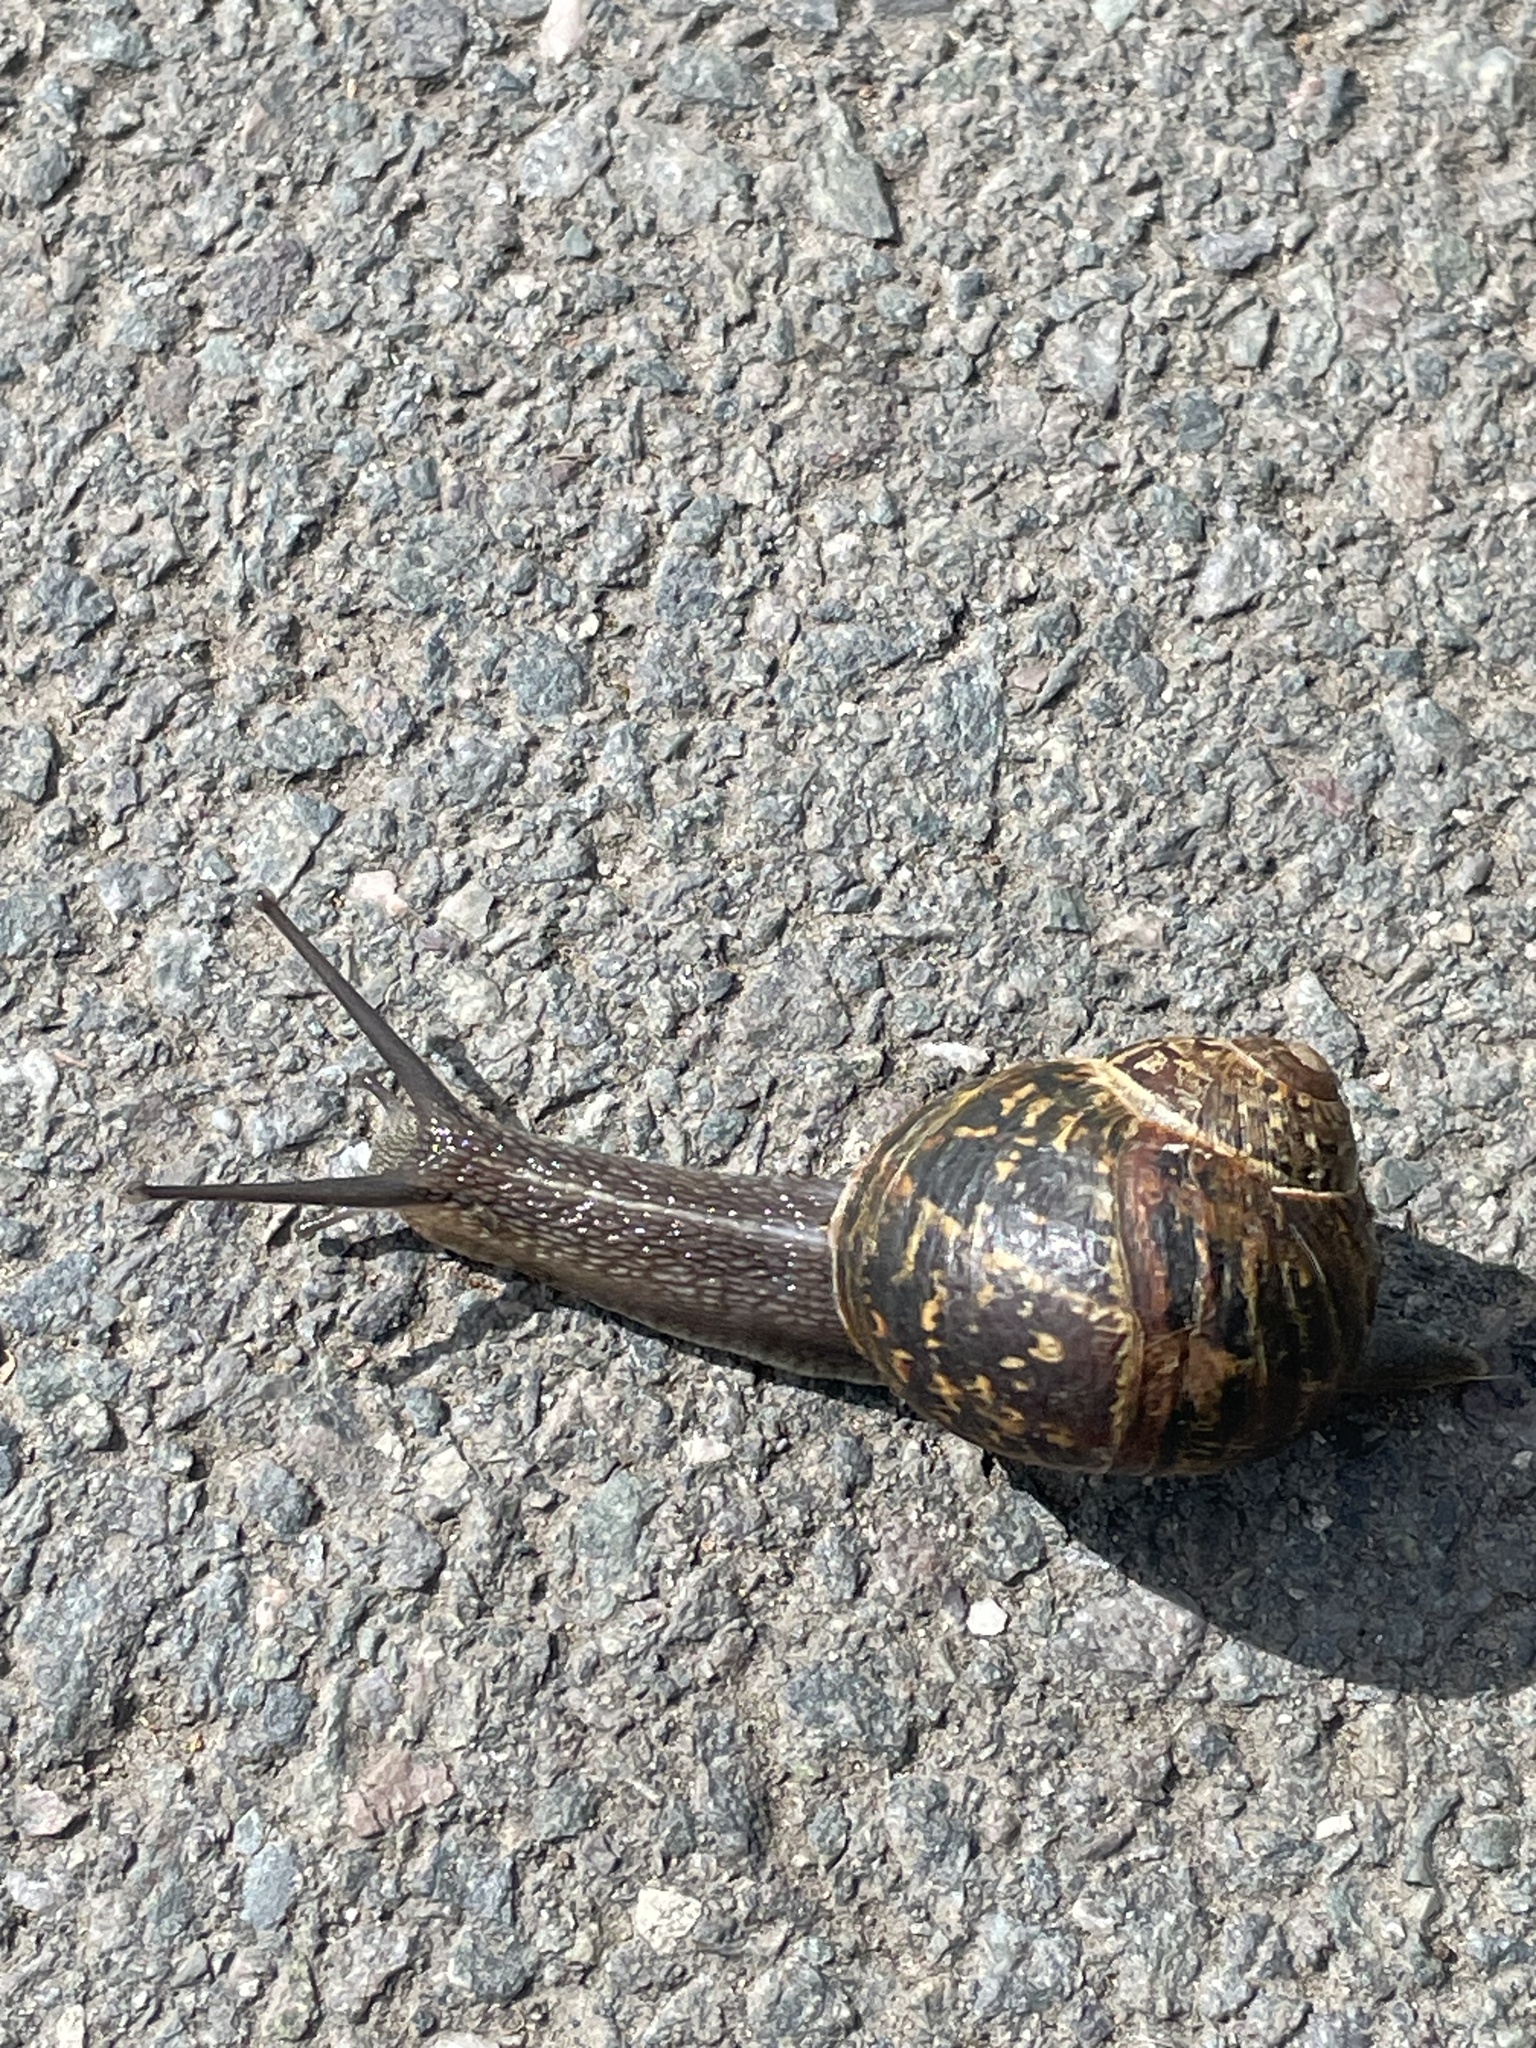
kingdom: Animalia
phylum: Mollusca
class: Gastropoda
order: Stylommatophora
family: Helicidae
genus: Cornu
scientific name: Cornu aspersum
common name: Brown garden snail
